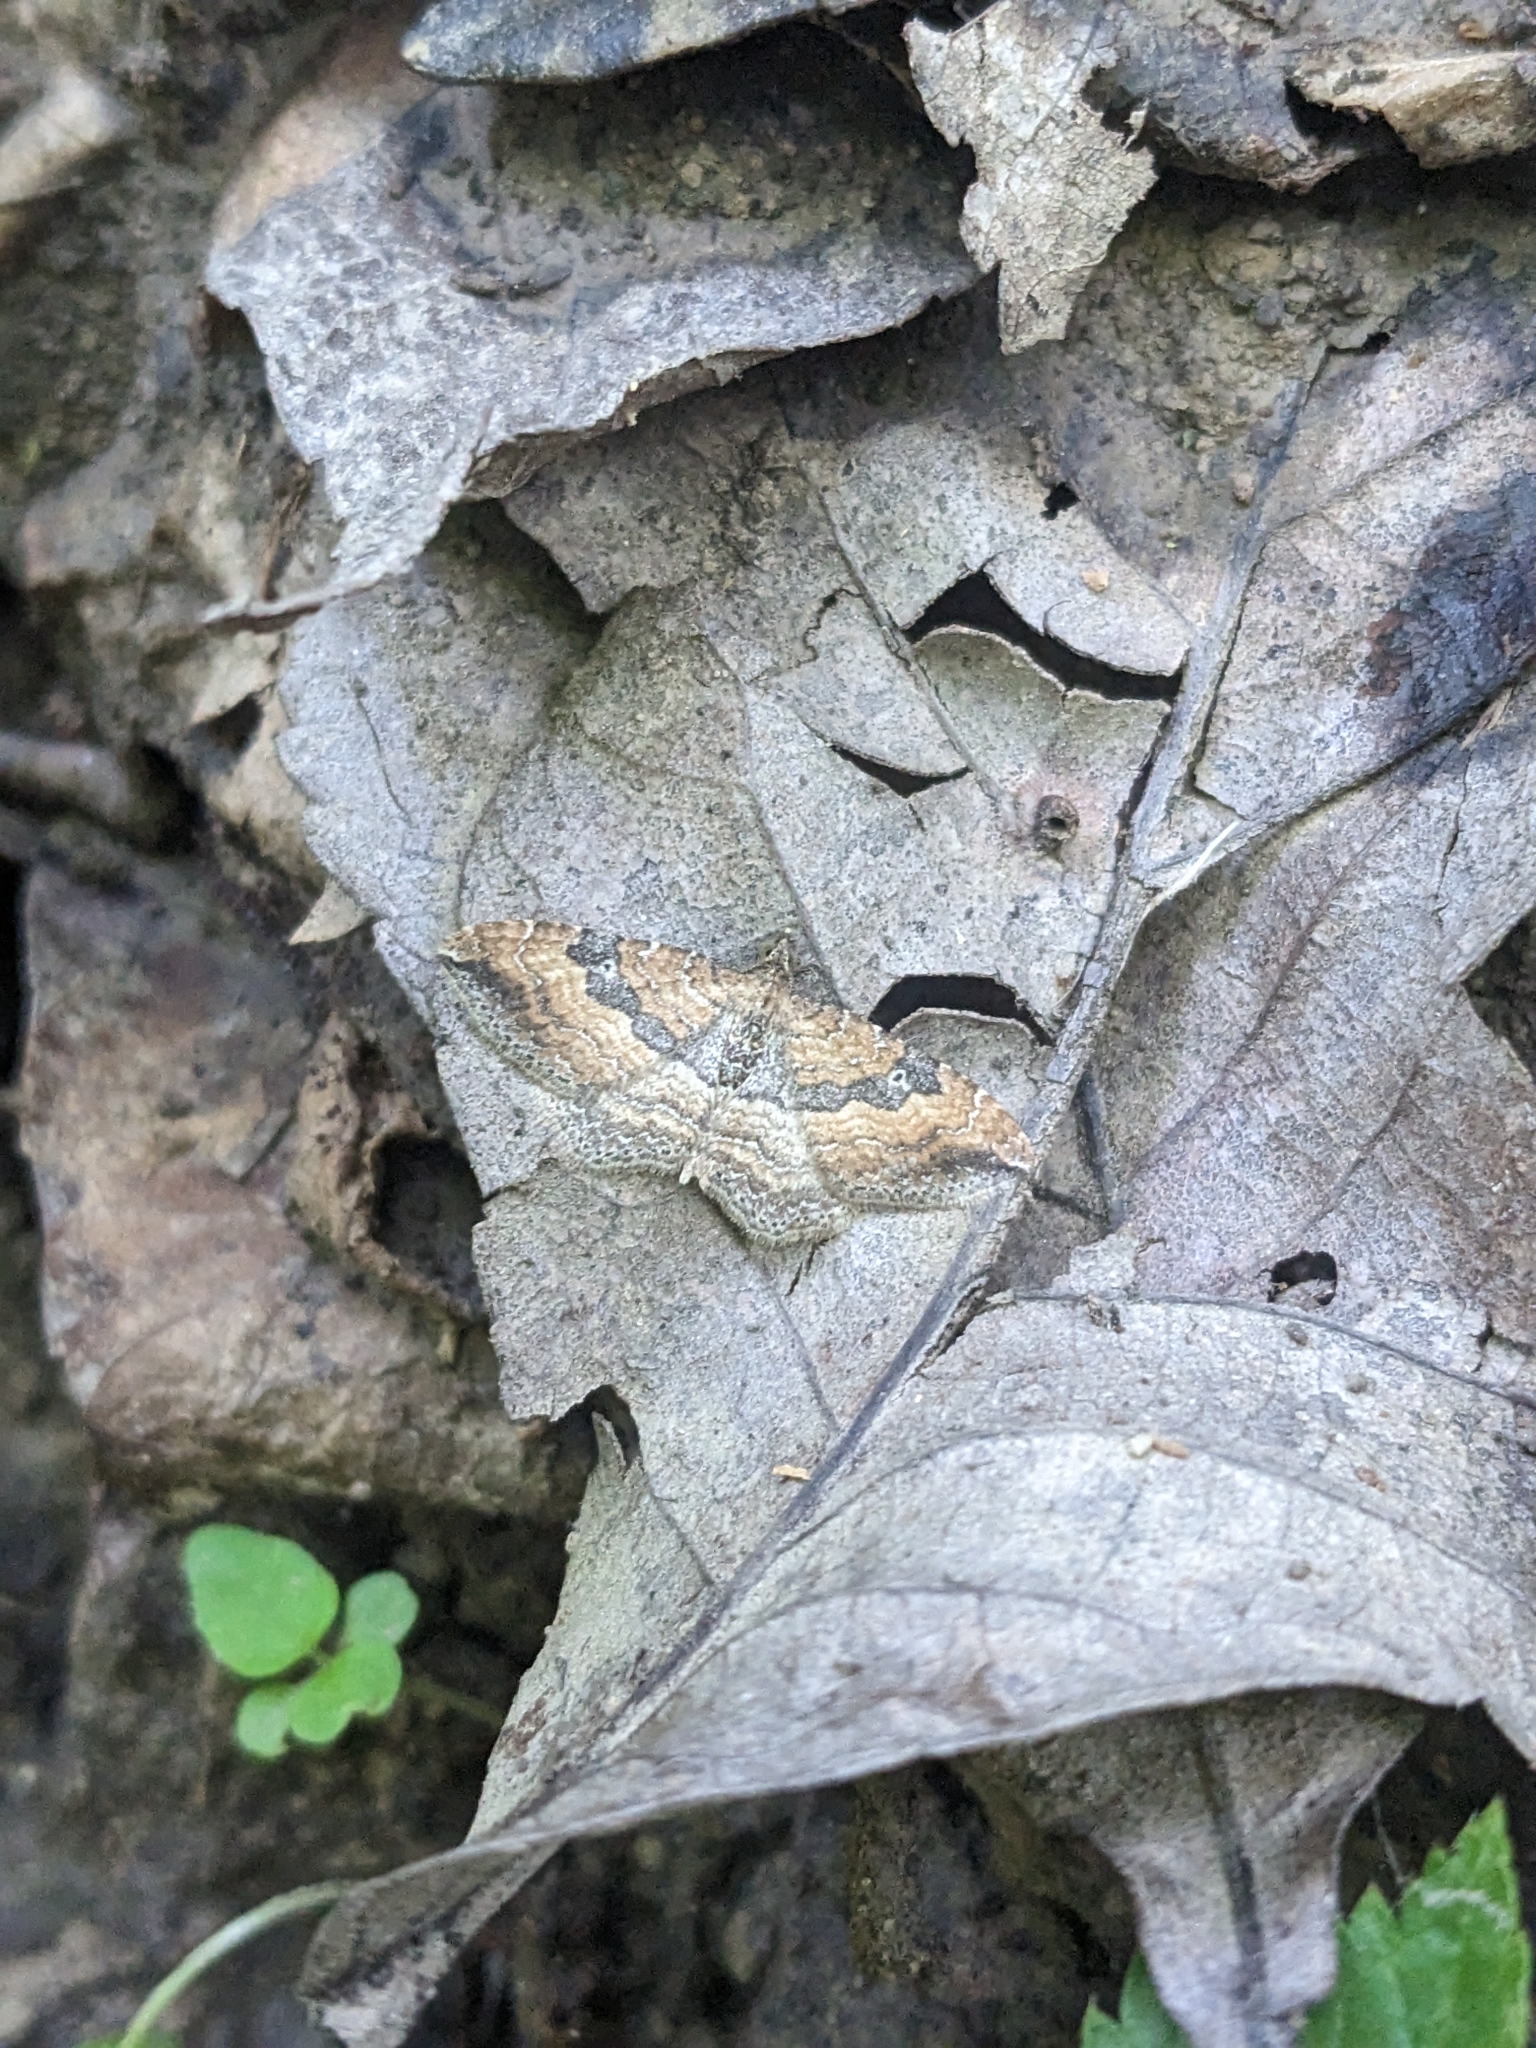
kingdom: Animalia
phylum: Arthropoda
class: Insecta
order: Lepidoptera
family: Geometridae
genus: Orthonama
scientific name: Orthonama obstipata
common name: The gem
